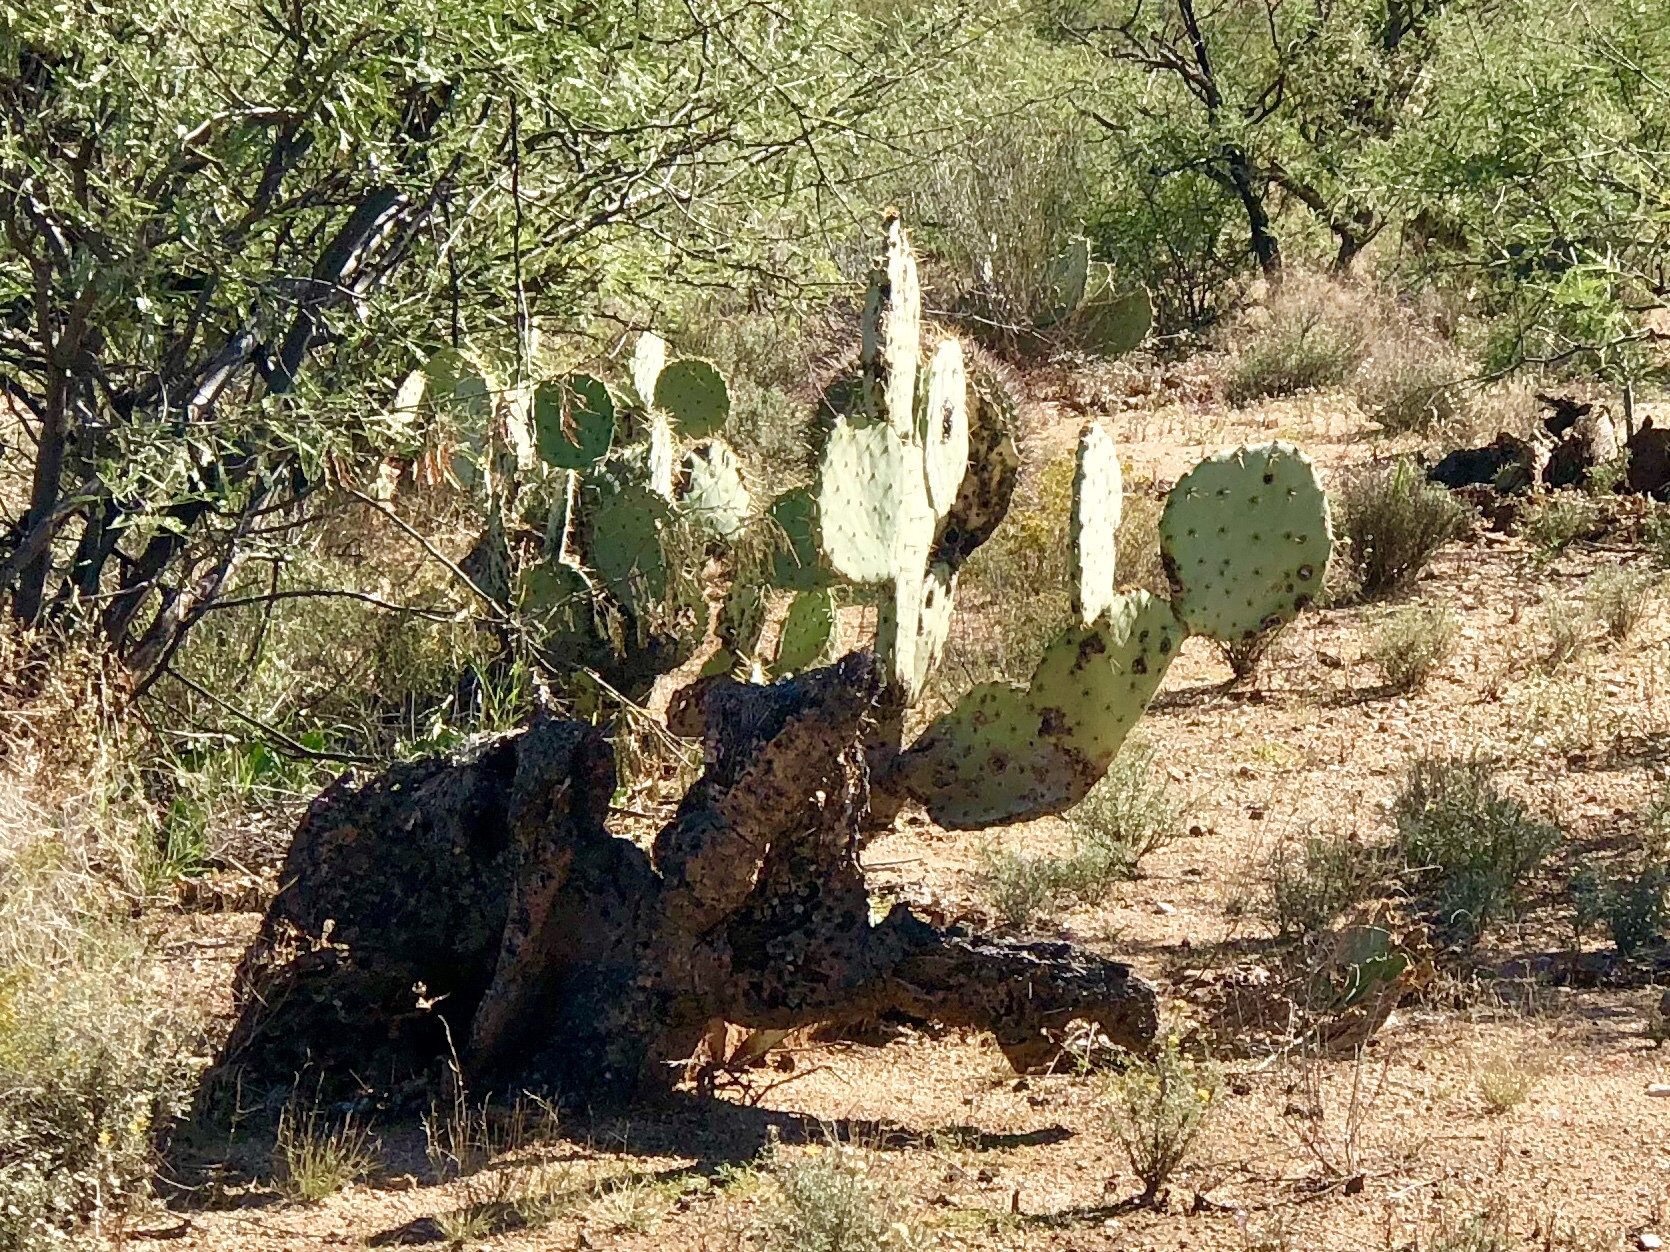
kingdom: Plantae
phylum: Tracheophyta
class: Magnoliopsida
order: Caryophyllales
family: Cactaceae
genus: Opuntia
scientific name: Opuntia engelmannii
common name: Cactus-apple
